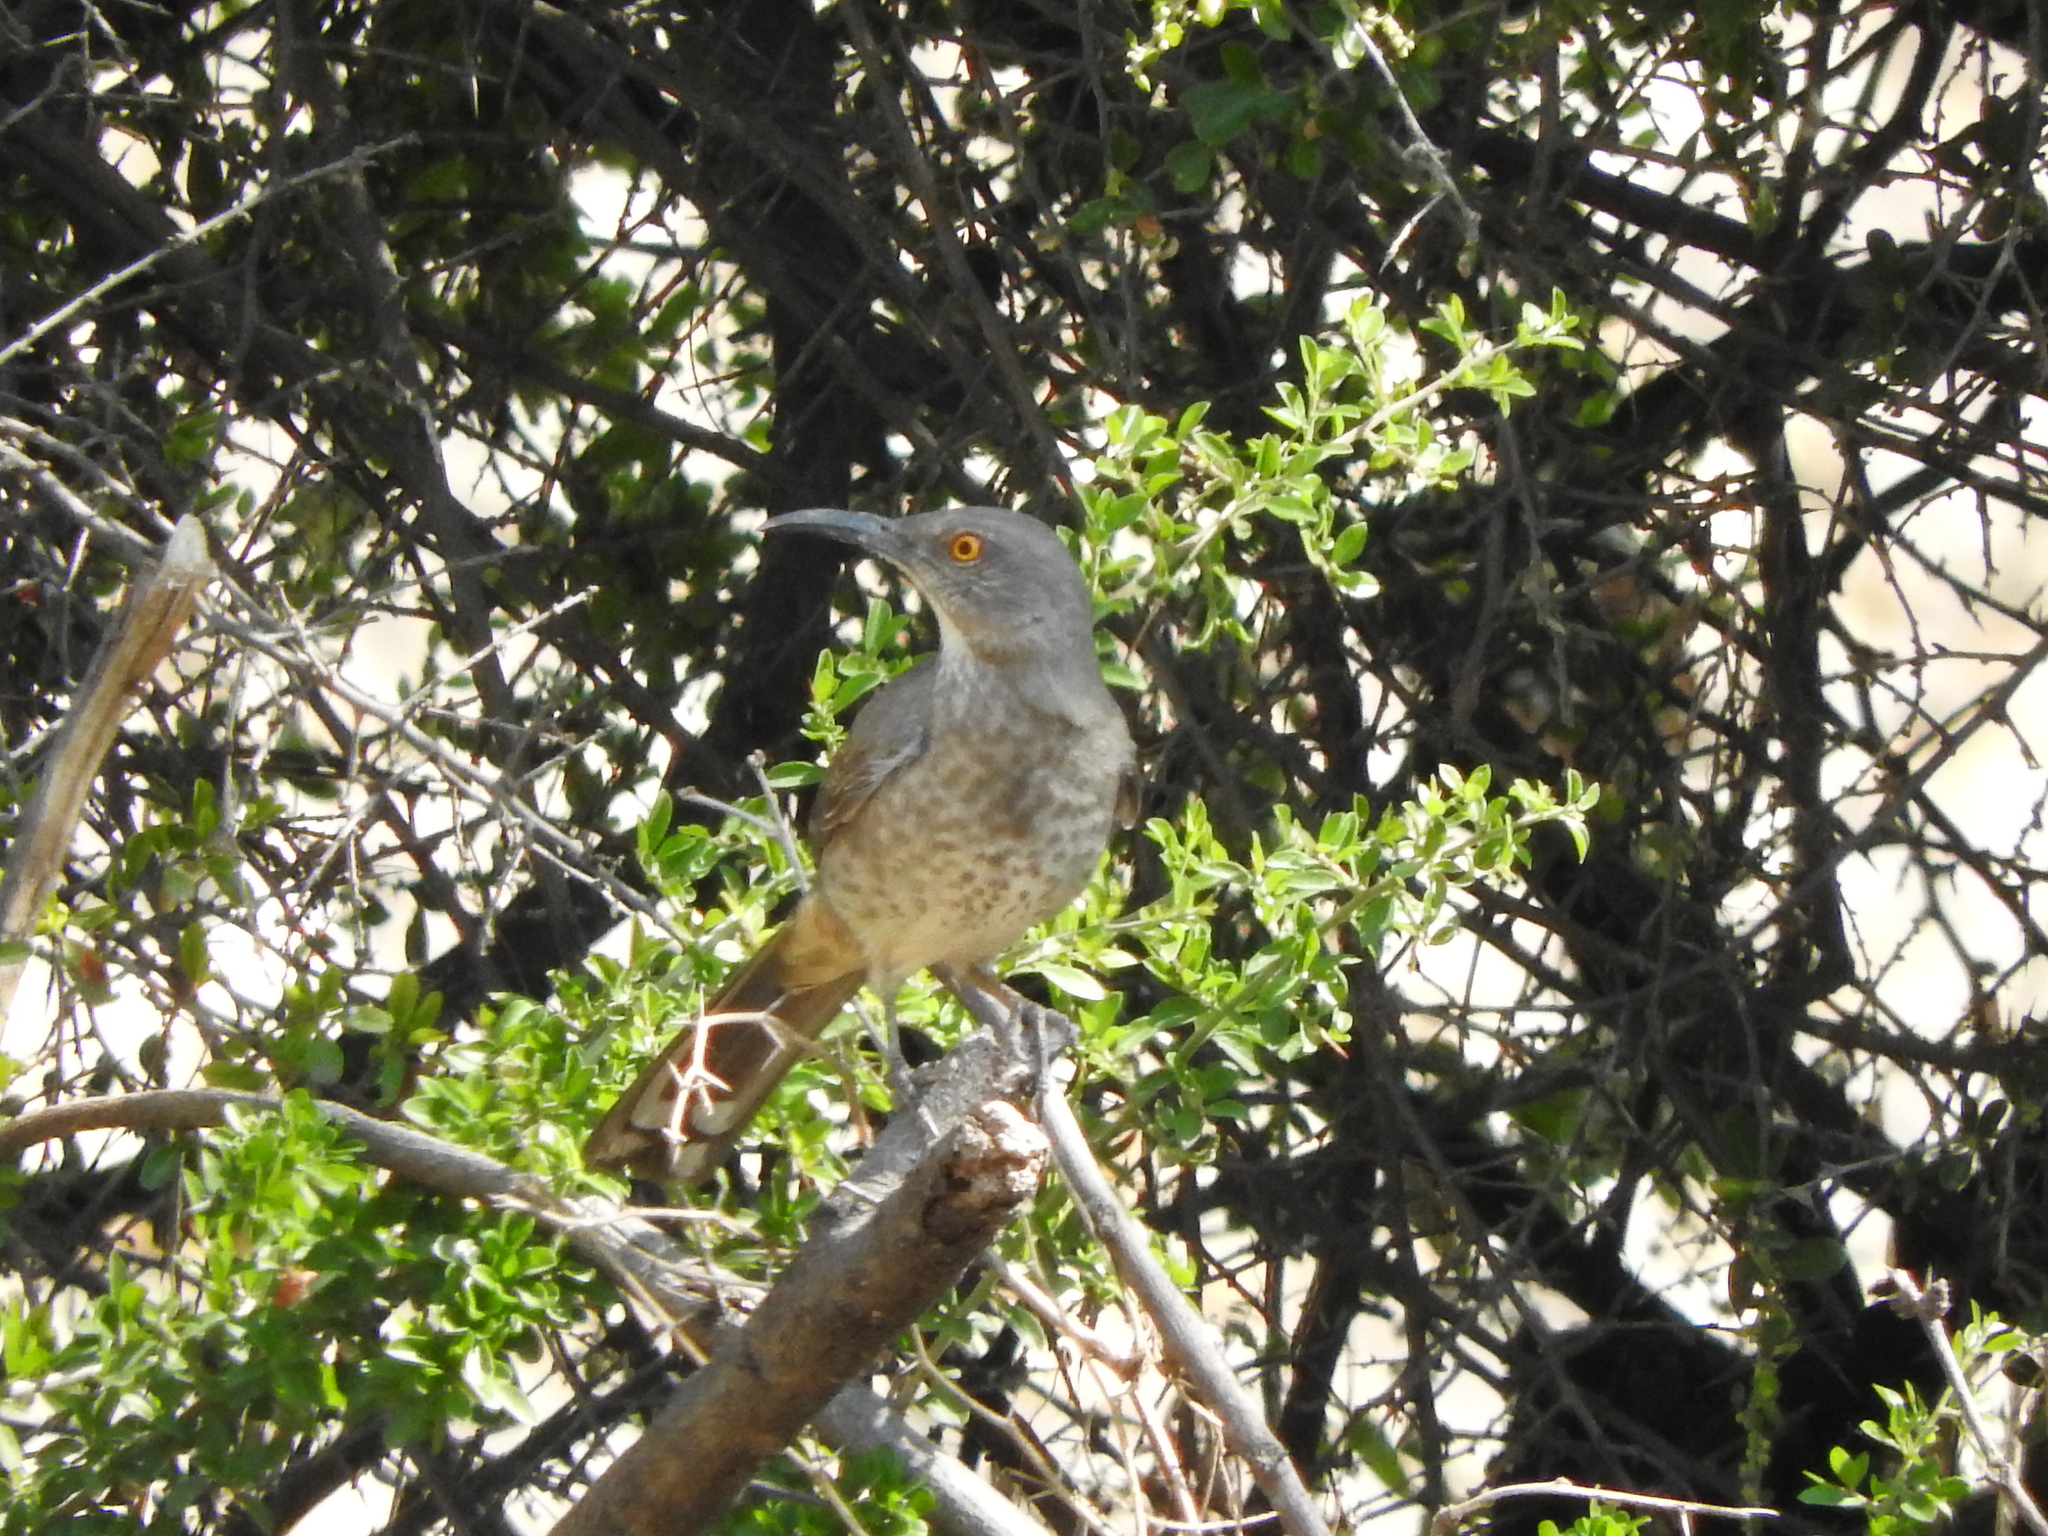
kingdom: Animalia
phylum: Chordata
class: Aves
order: Passeriformes
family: Mimidae
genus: Toxostoma
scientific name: Toxostoma curvirostre
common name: Curve-billed thrasher
